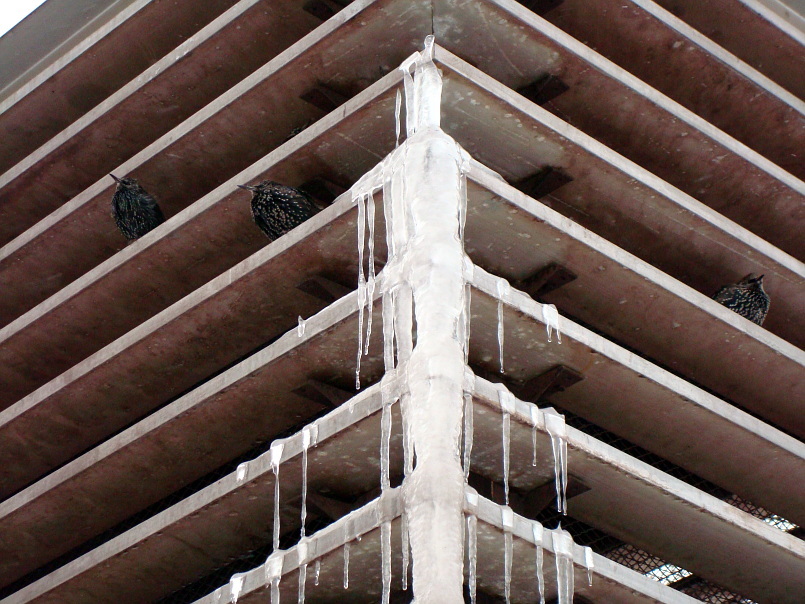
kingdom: Animalia
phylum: Chordata
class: Aves
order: Passeriformes
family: Sturnidae
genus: Sturnus
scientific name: Sturnus vulgaris
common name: Common starling
